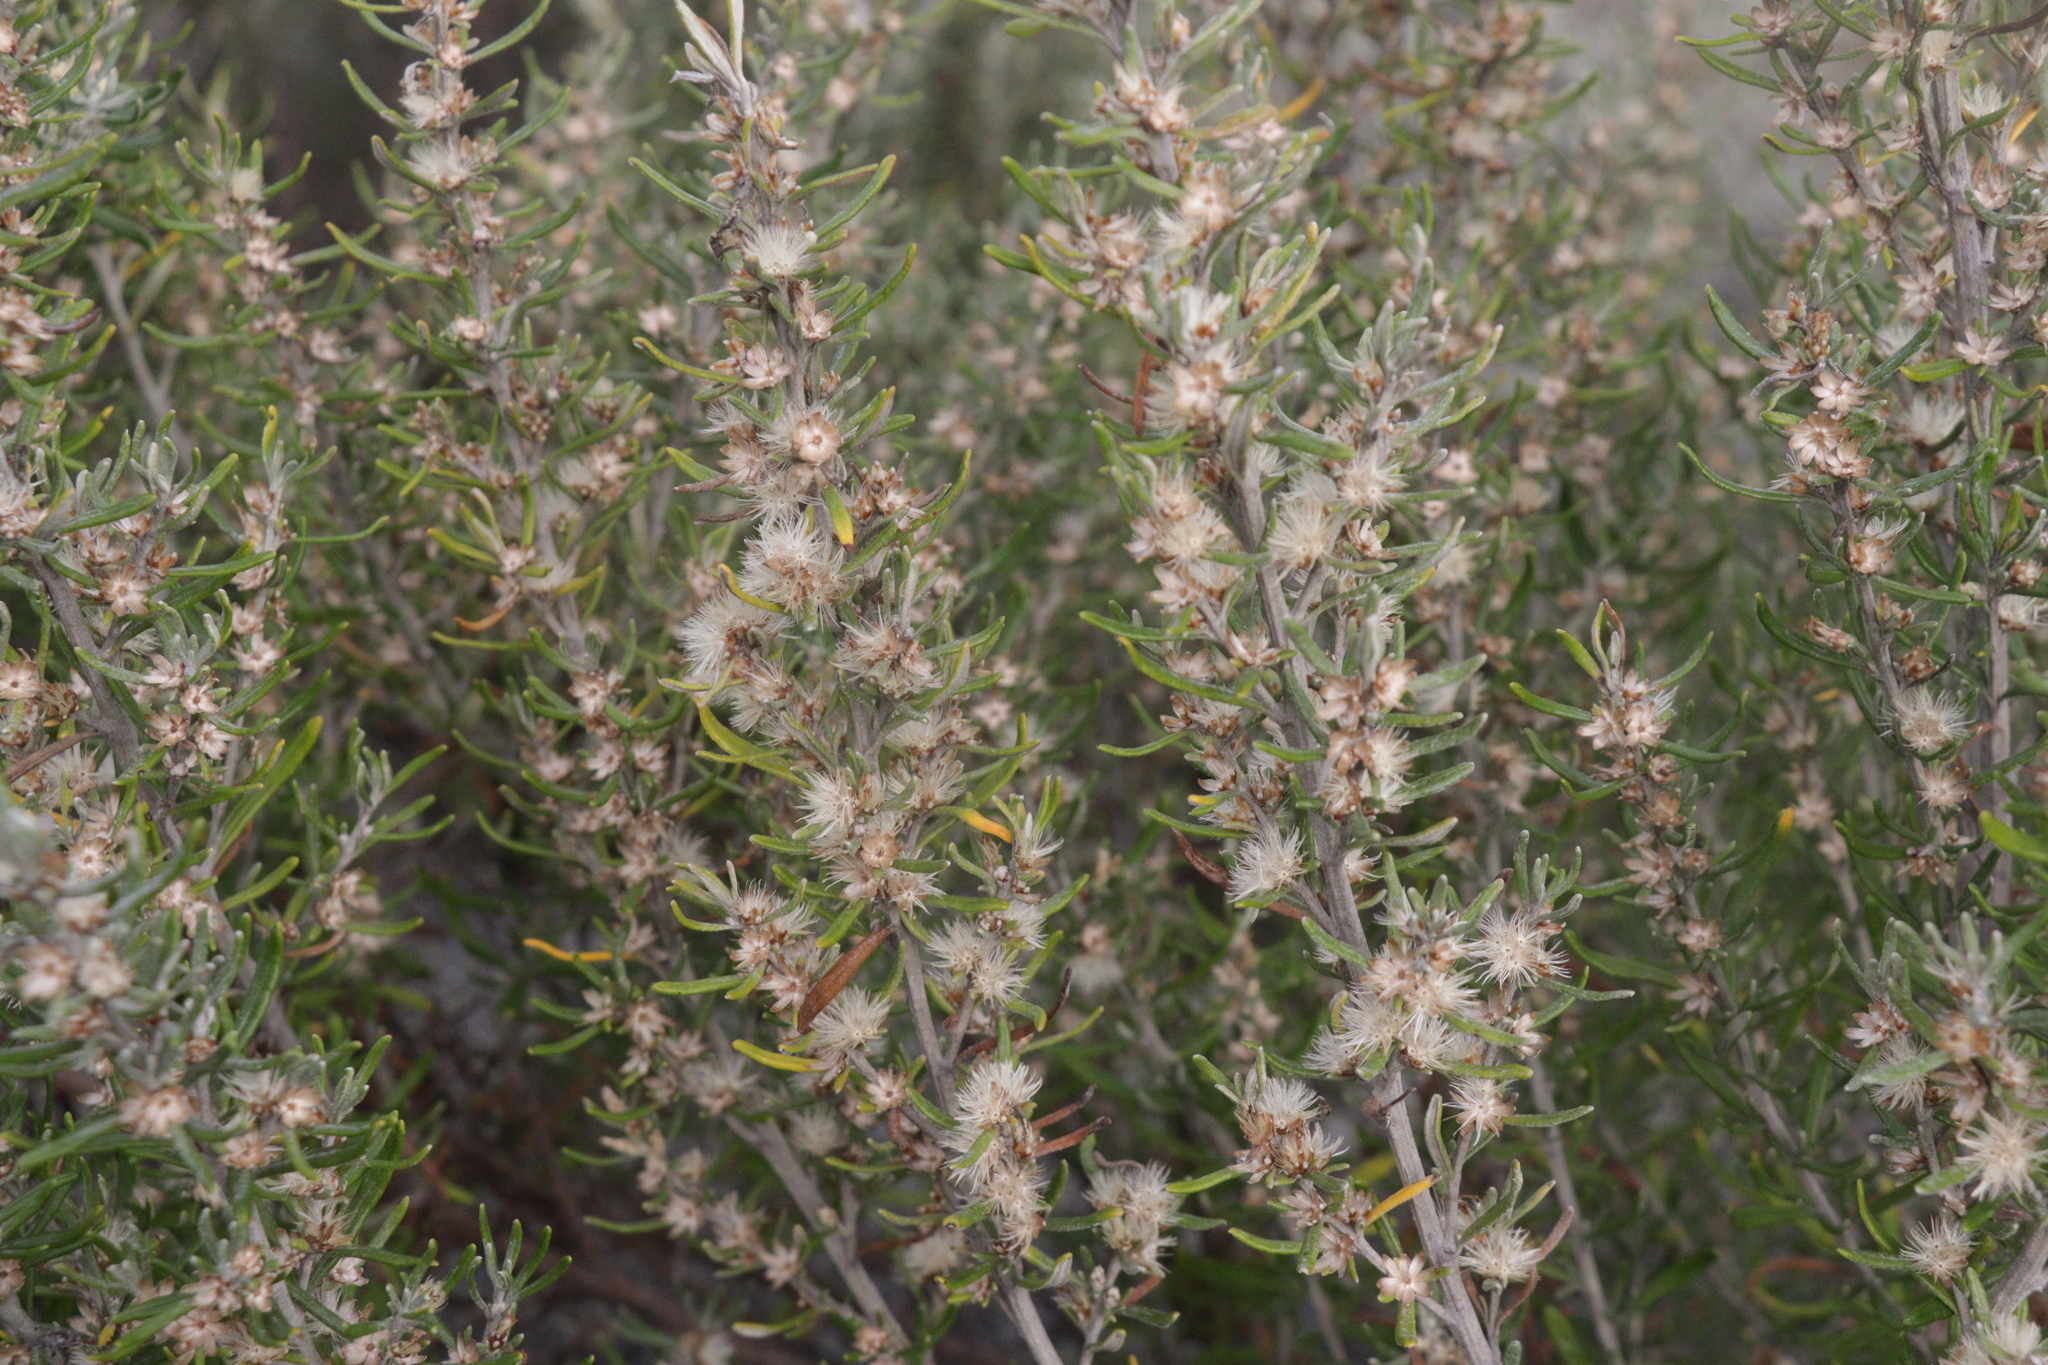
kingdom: Plantae
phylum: Tracheophyta
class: Magnoliopsida
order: Asterales
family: Asteraceae
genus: Olearia
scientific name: Olearia axillaris
